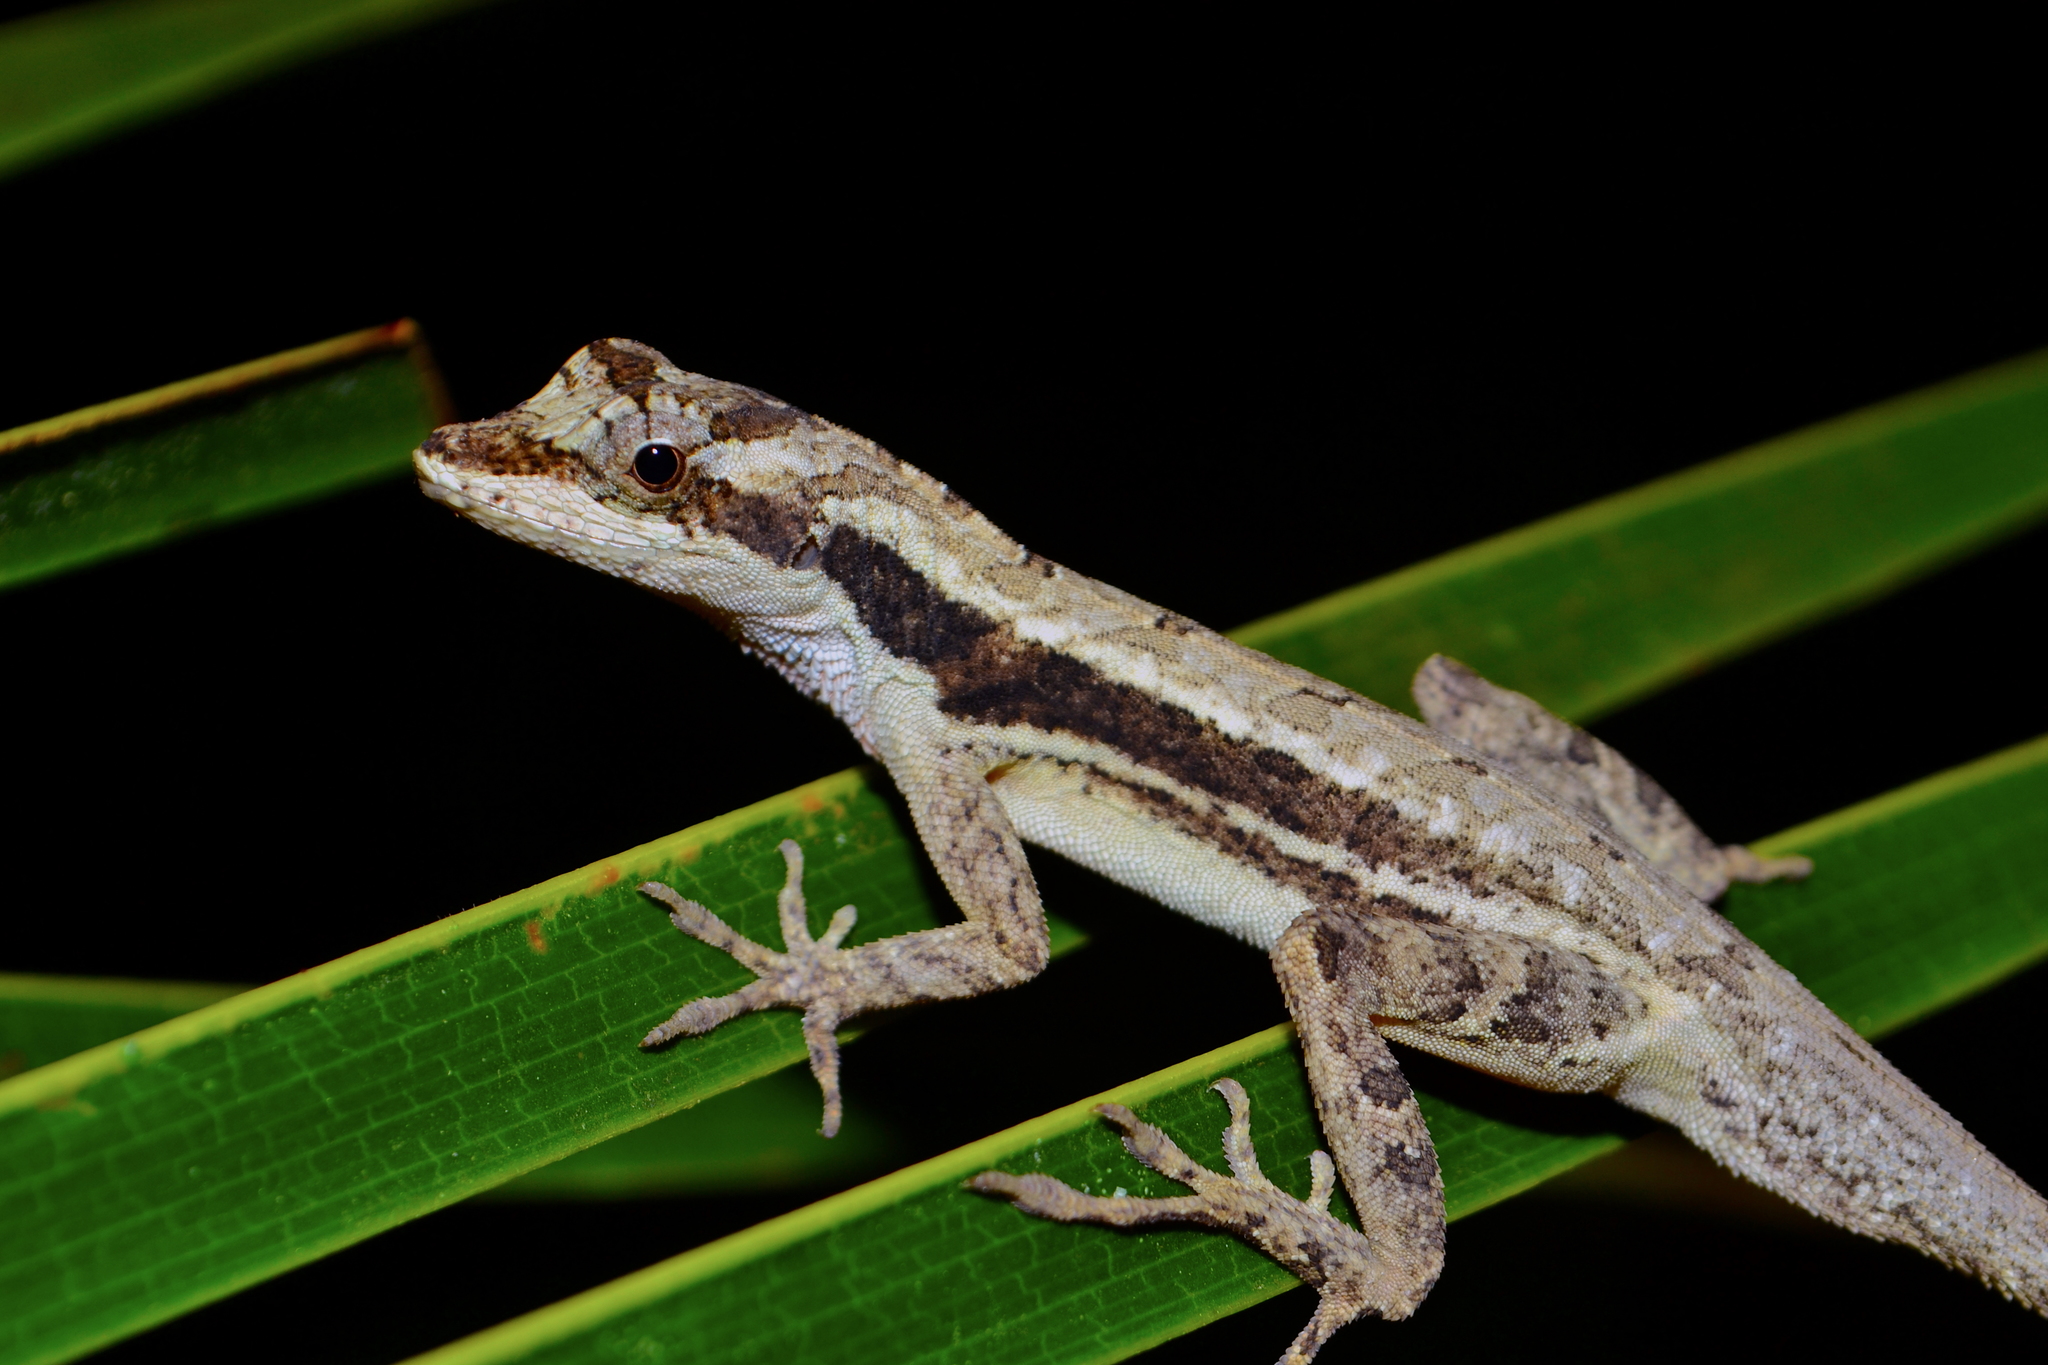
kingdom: Animalia
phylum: Chordata
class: Squamata
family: Dactyloidae
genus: Anolis
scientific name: Anolis lemurinus
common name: Ghost anole
